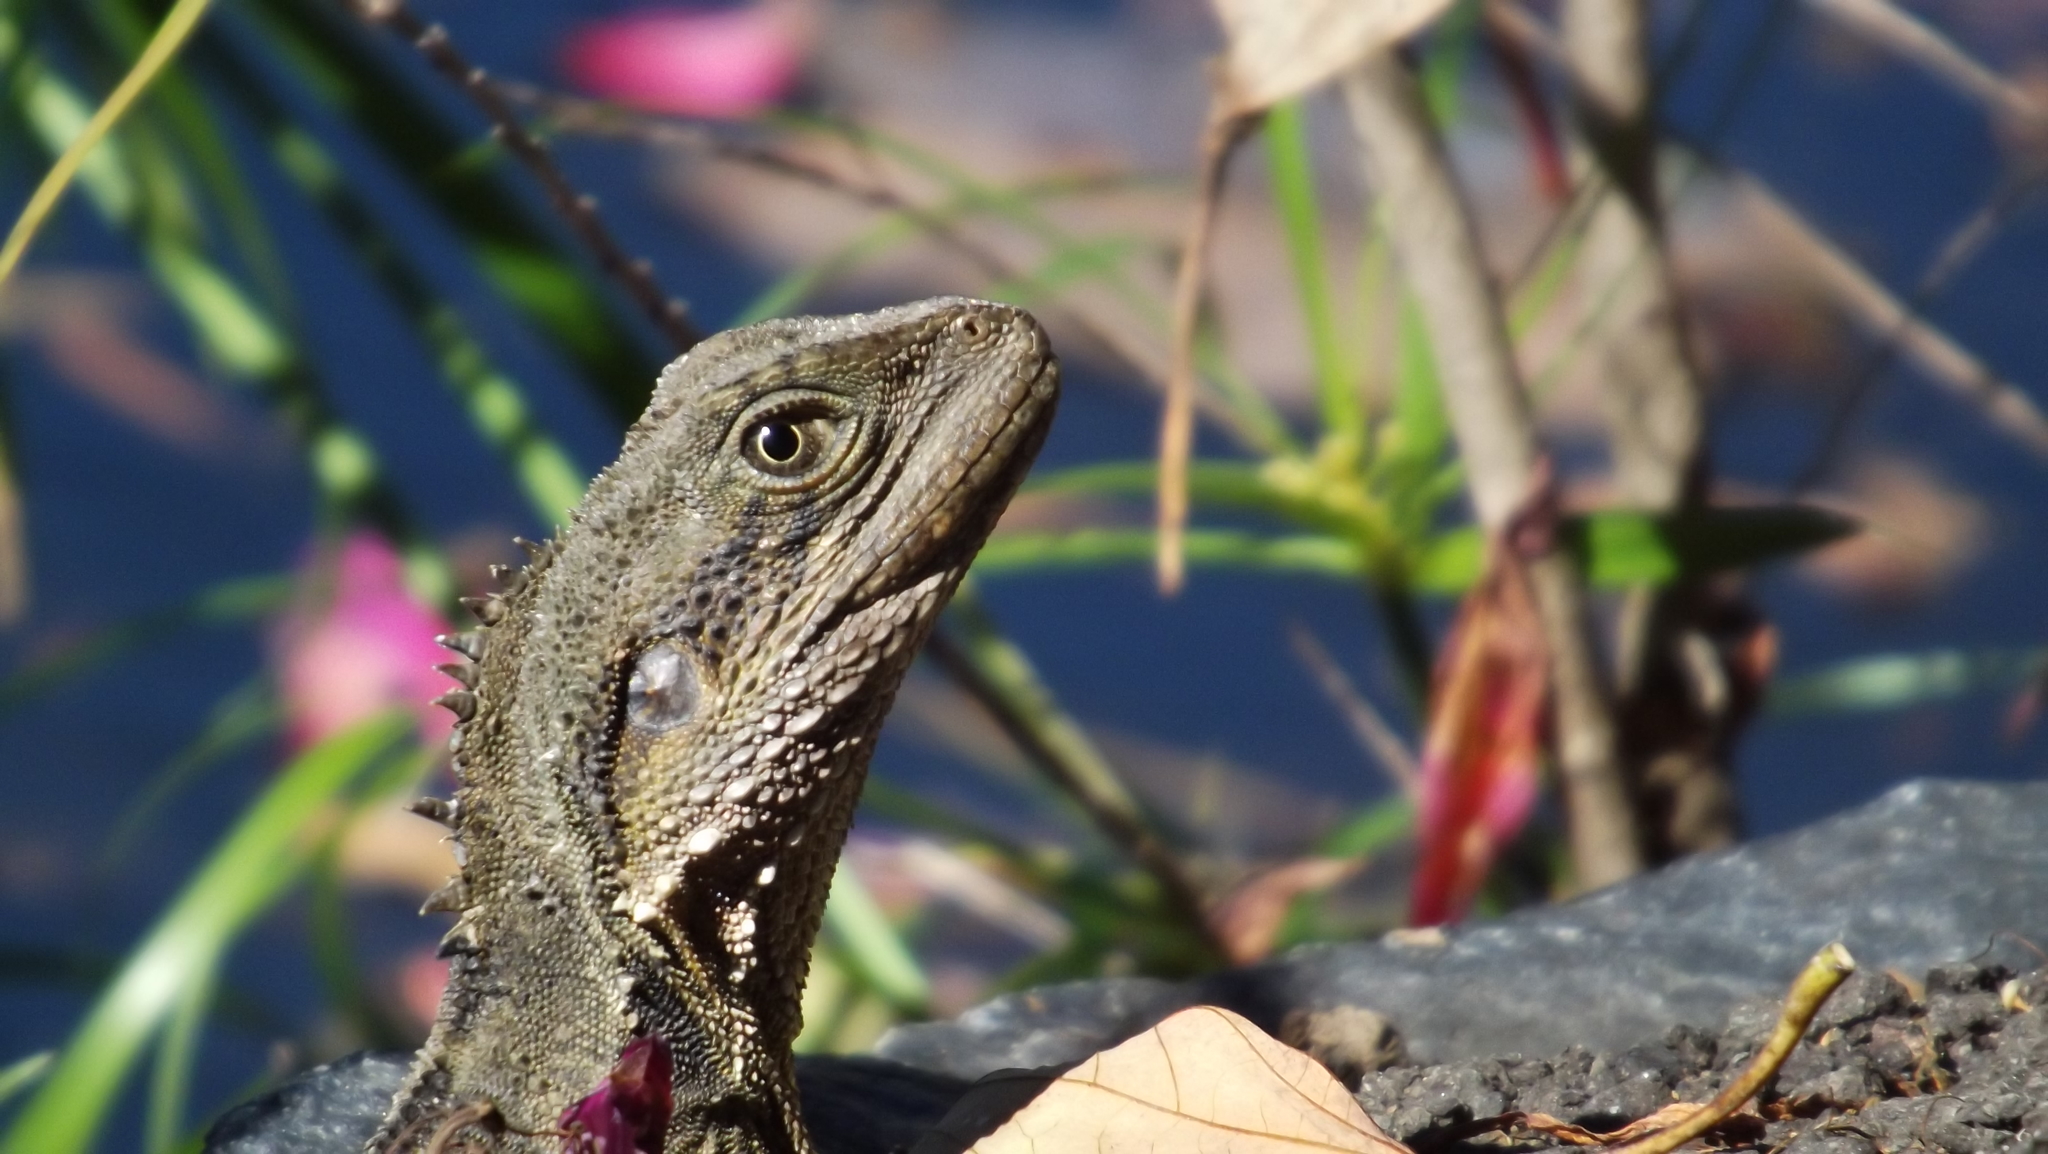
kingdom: Animalia
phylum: Chordata
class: Squamata
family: Agamidae
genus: Intellagama
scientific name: Intellagama lesueurii
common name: Eastern water dragon
